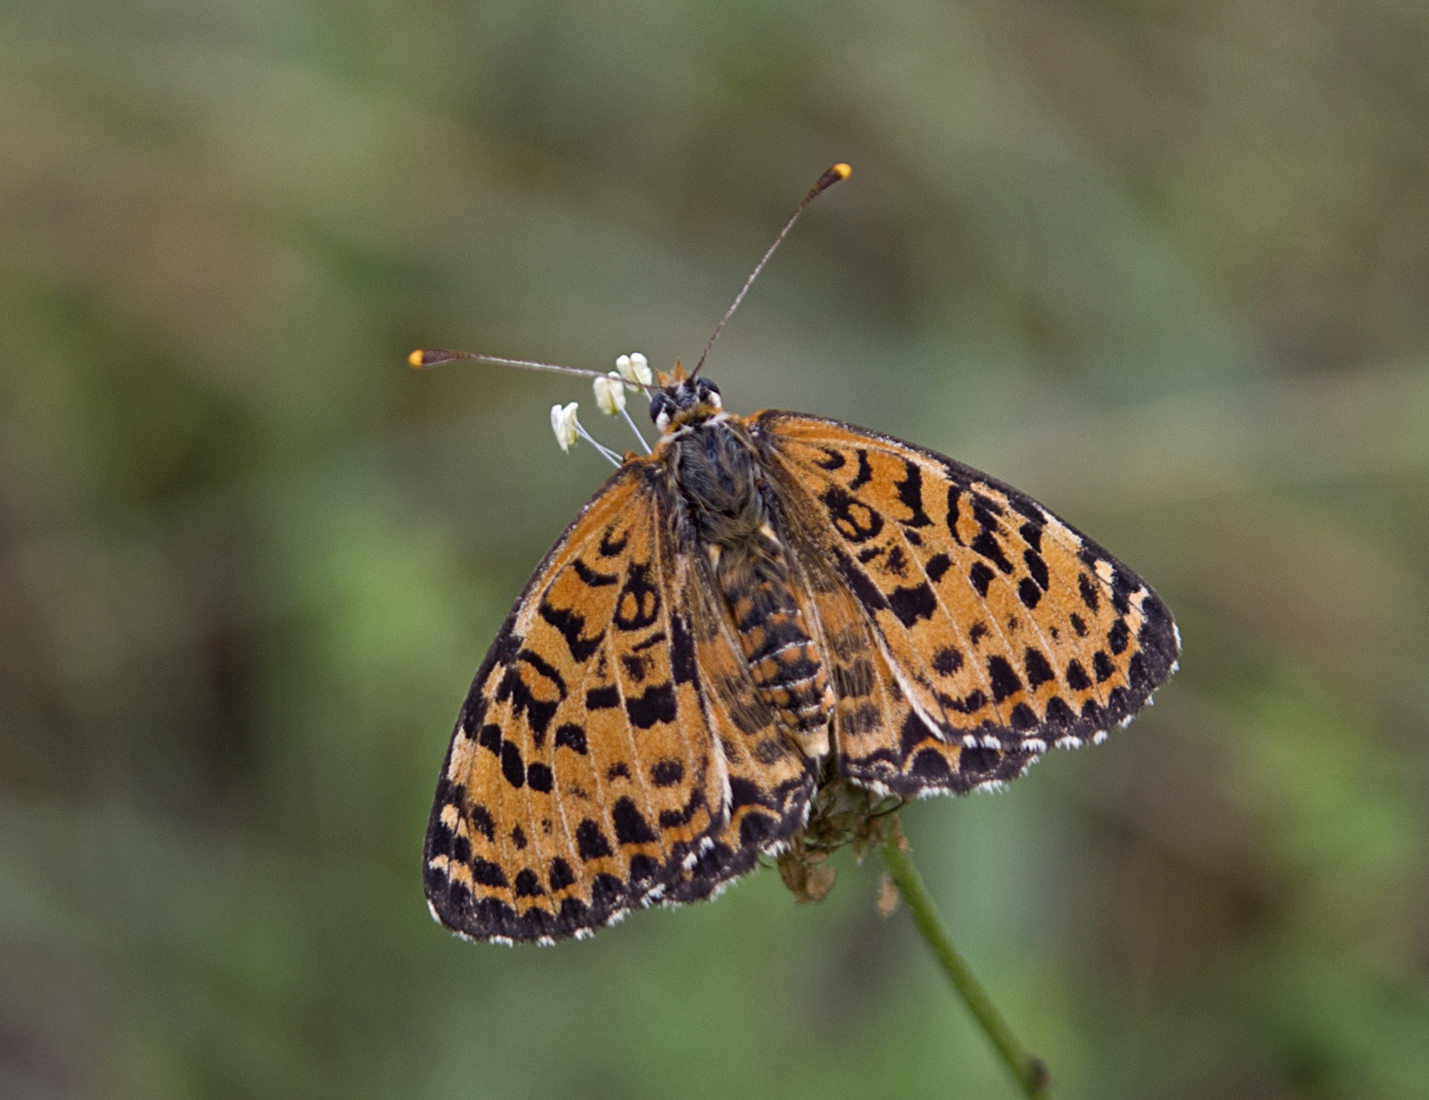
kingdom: Animalia
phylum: Arthropoda
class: Insecta
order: Lepidoptera
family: Nymphalidae
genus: Melitaea
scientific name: Melitaea didyma
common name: Spotted fritillary
